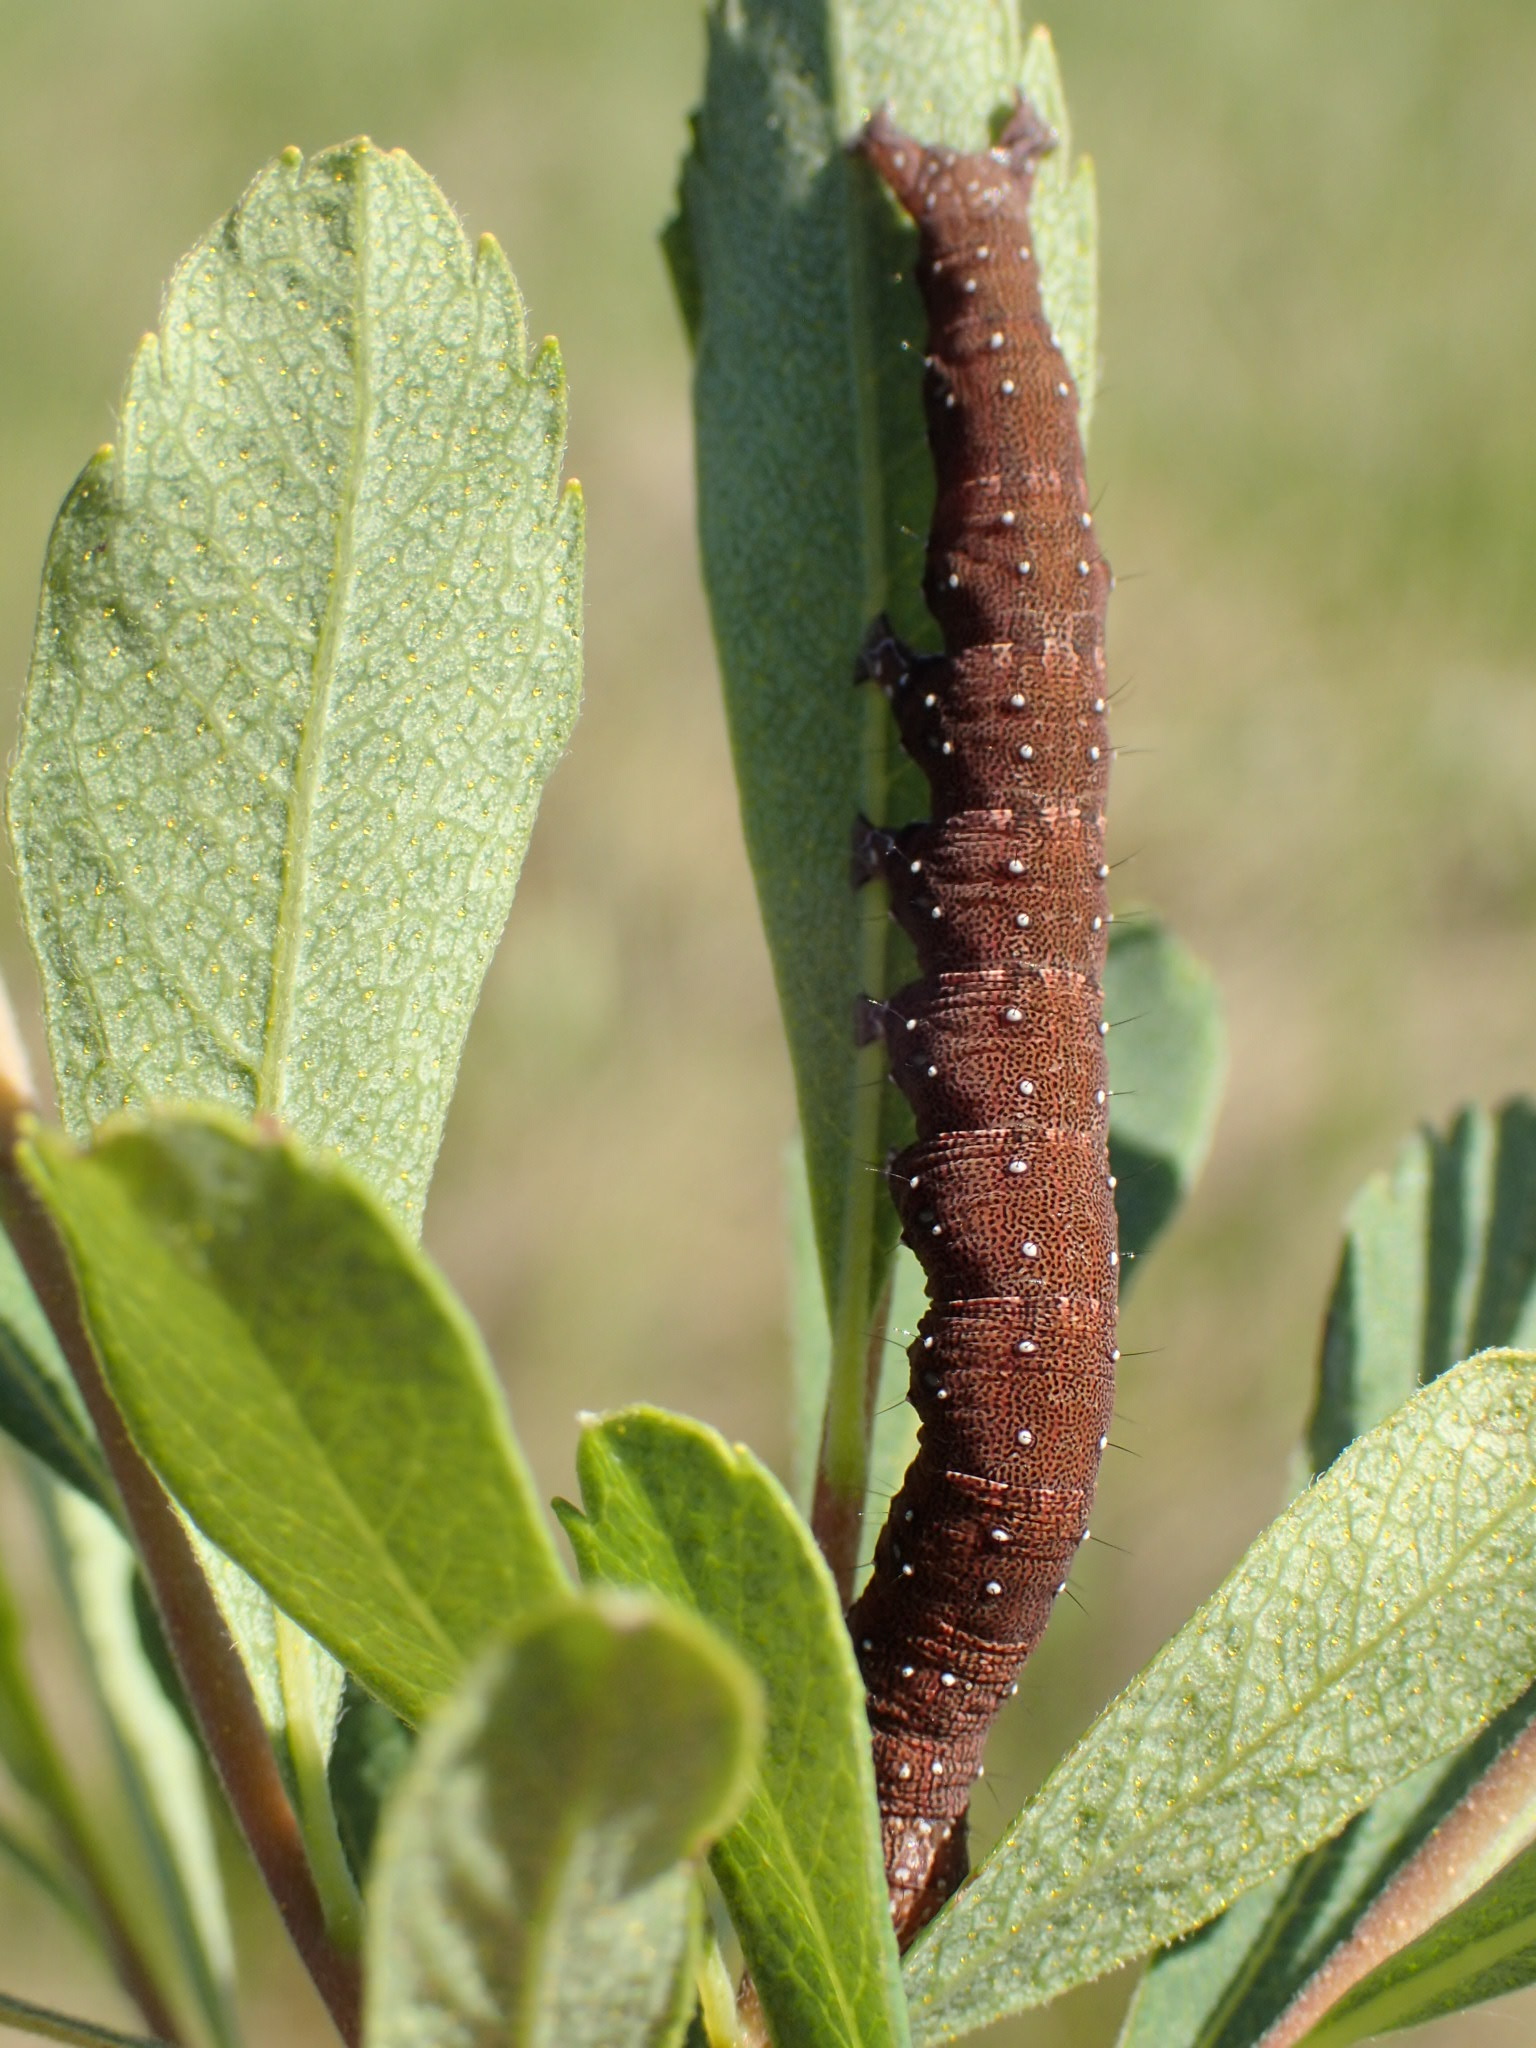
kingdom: Animalia
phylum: Arthropoda
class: Insecta
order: Lepidoptera
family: Erebidae
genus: Catocala
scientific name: Catocala badia
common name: Bay underwing
